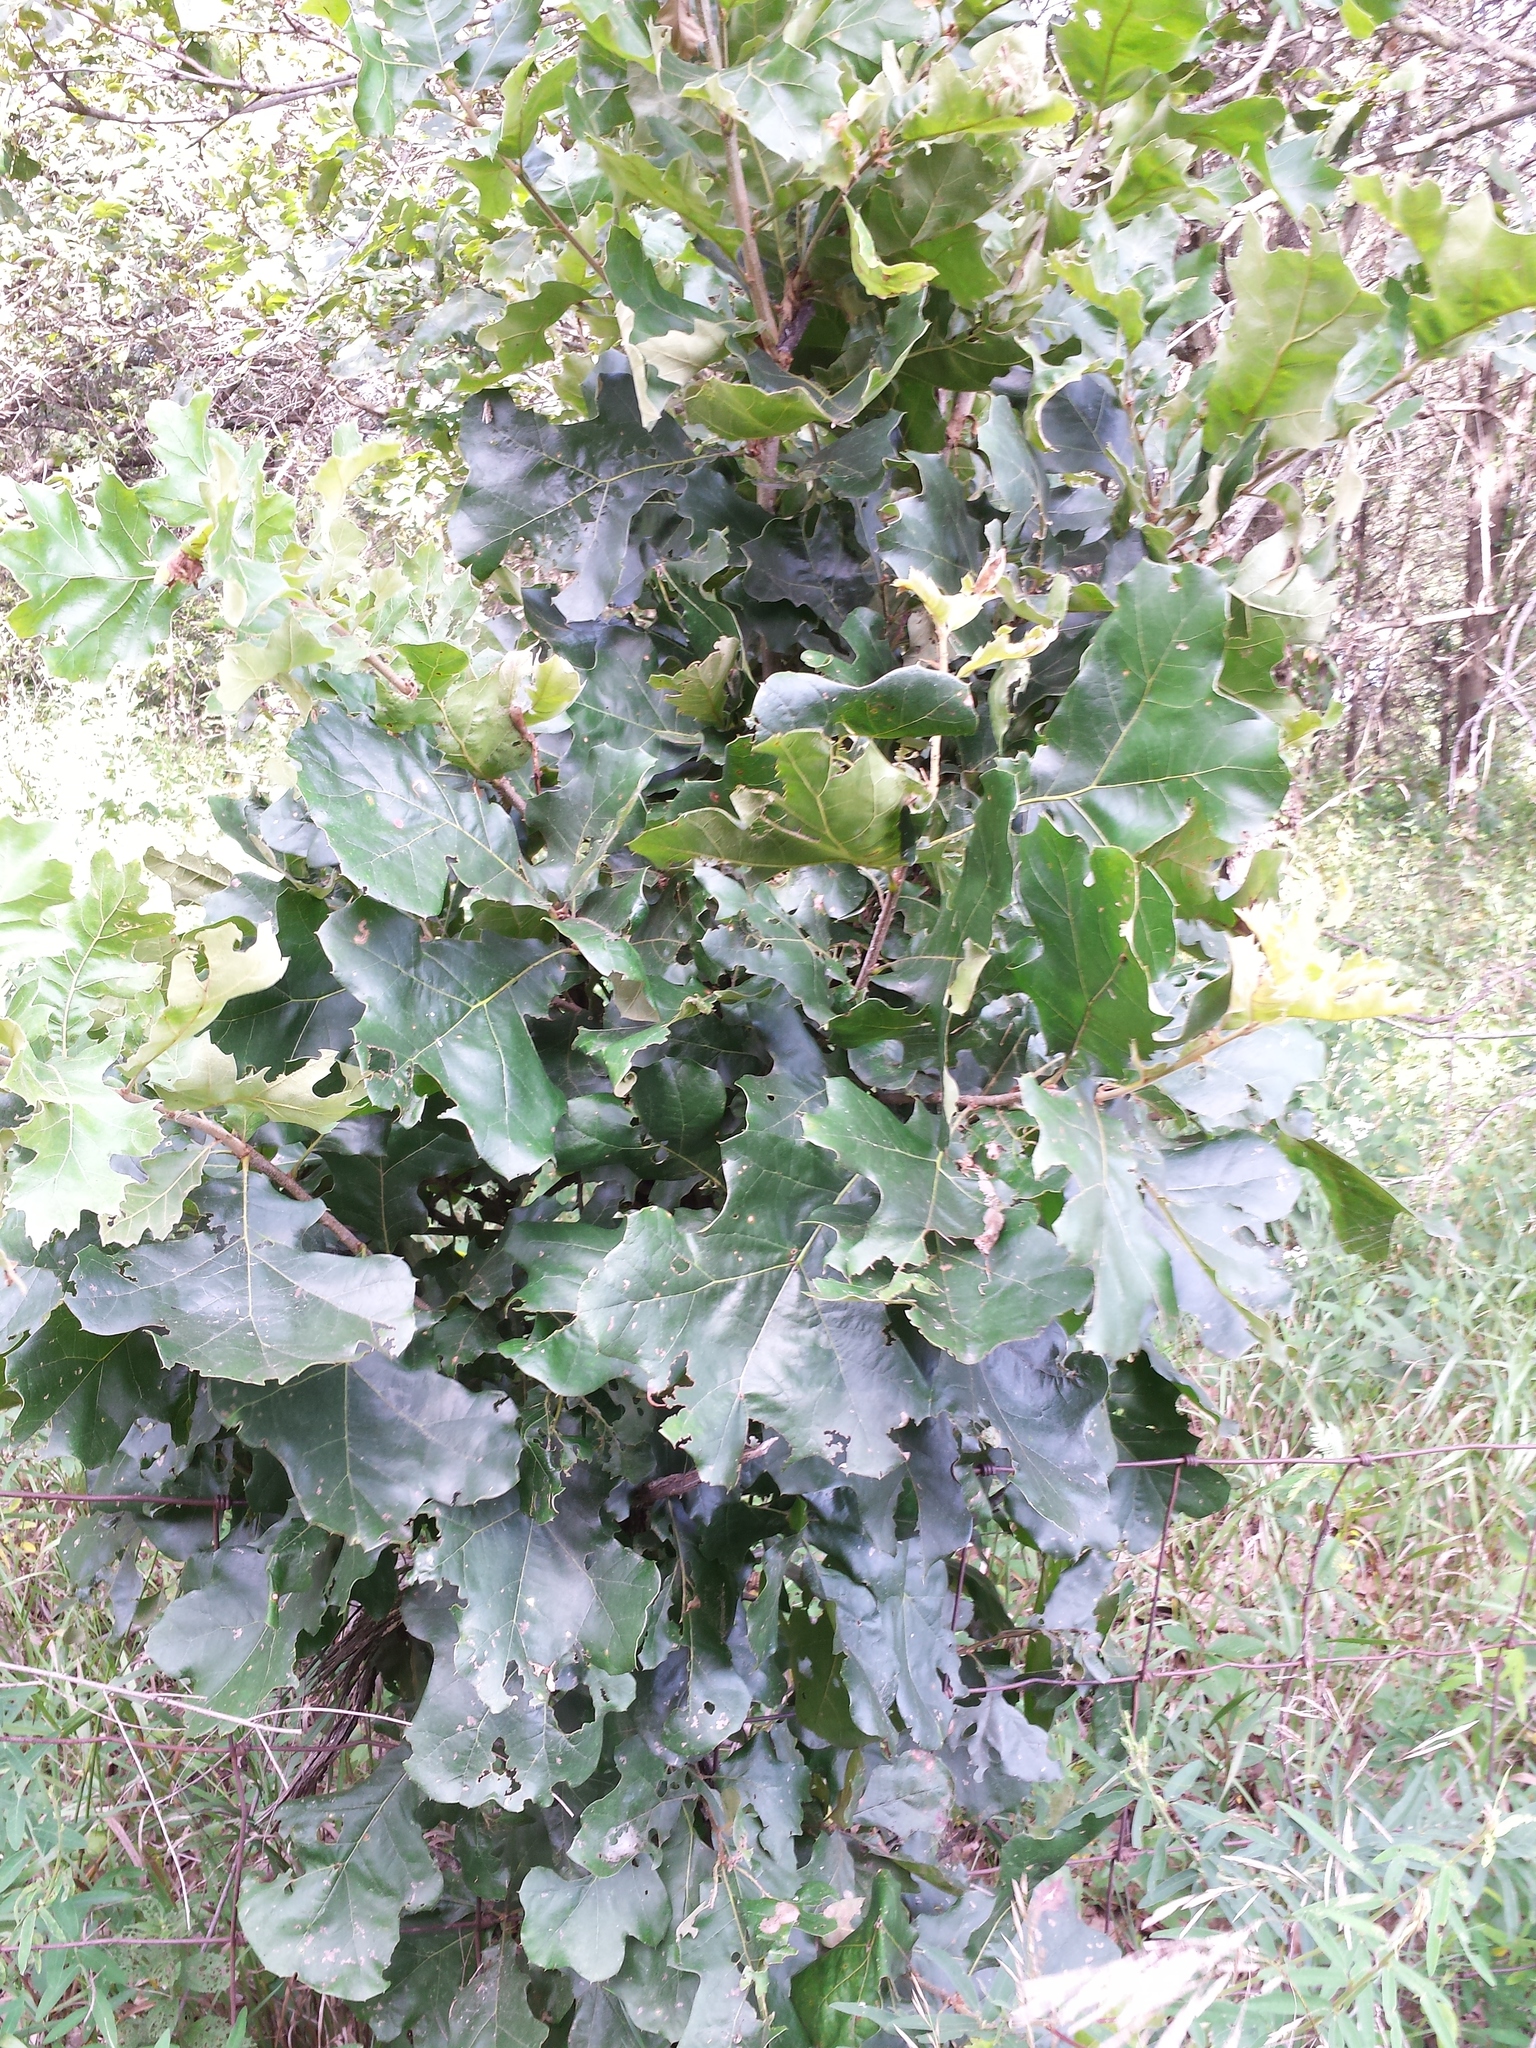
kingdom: Plantae
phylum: Tracheophyta
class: Magnoliopsida
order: Fagales
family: Fagaceae
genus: Quercus
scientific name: Quercus marilandica
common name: Blackjack oak
